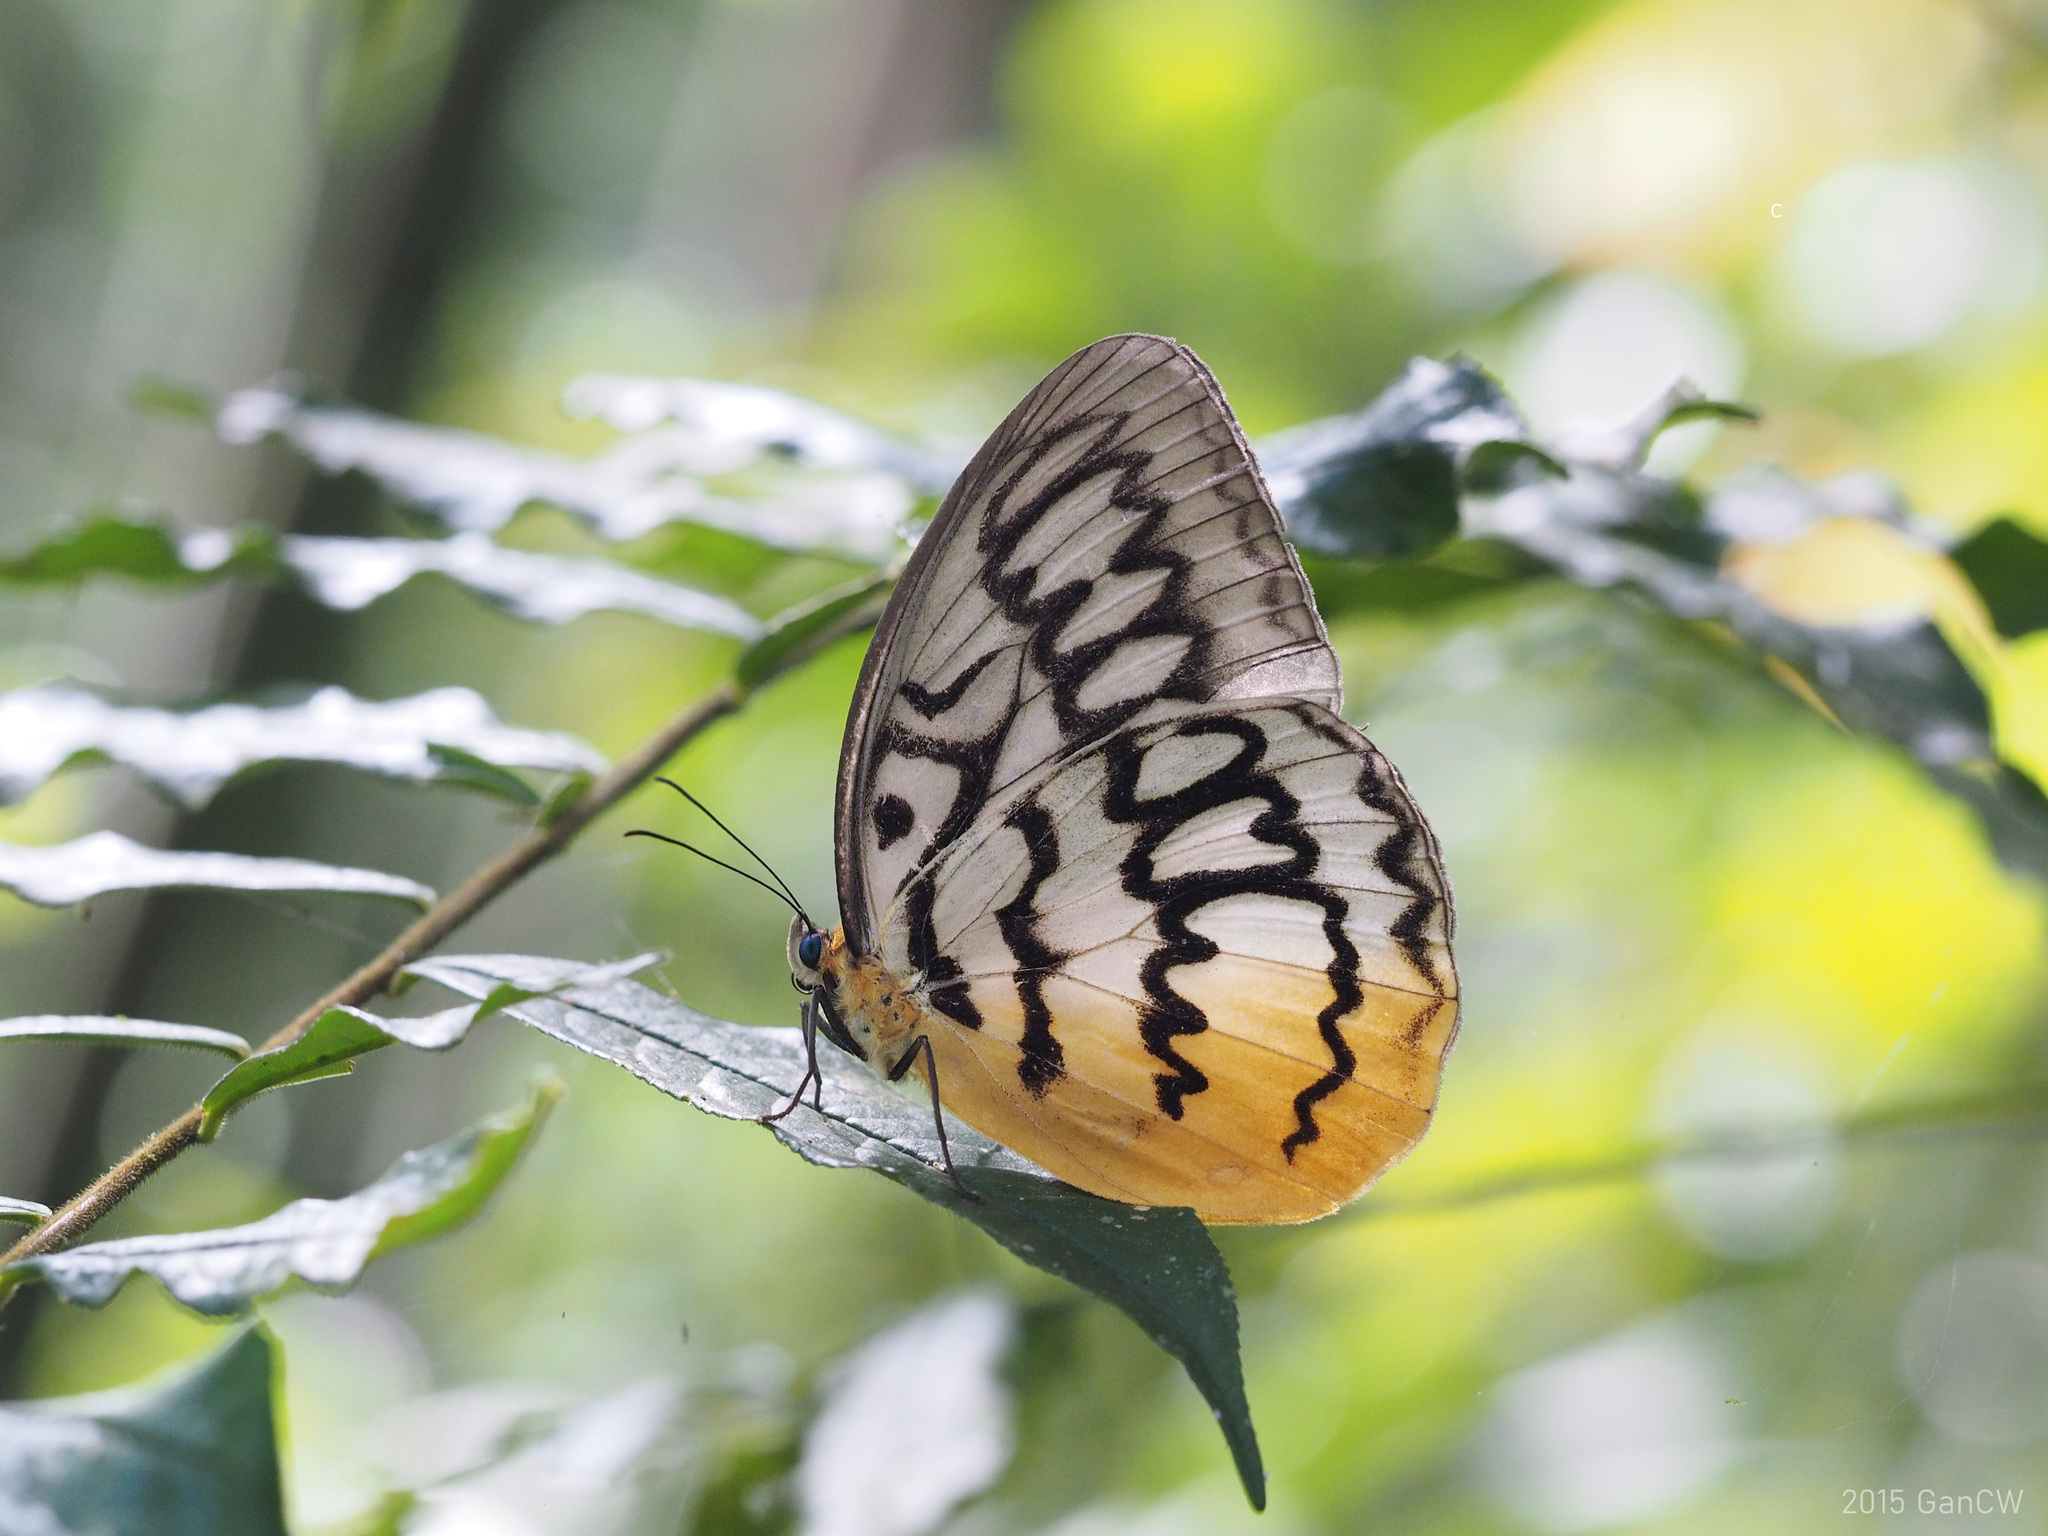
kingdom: Animalia
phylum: Arthropoda
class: Insecta
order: Lepidoptera
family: Nymphalidae
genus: Faunis
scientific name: Faunis Melanocyma faunula
